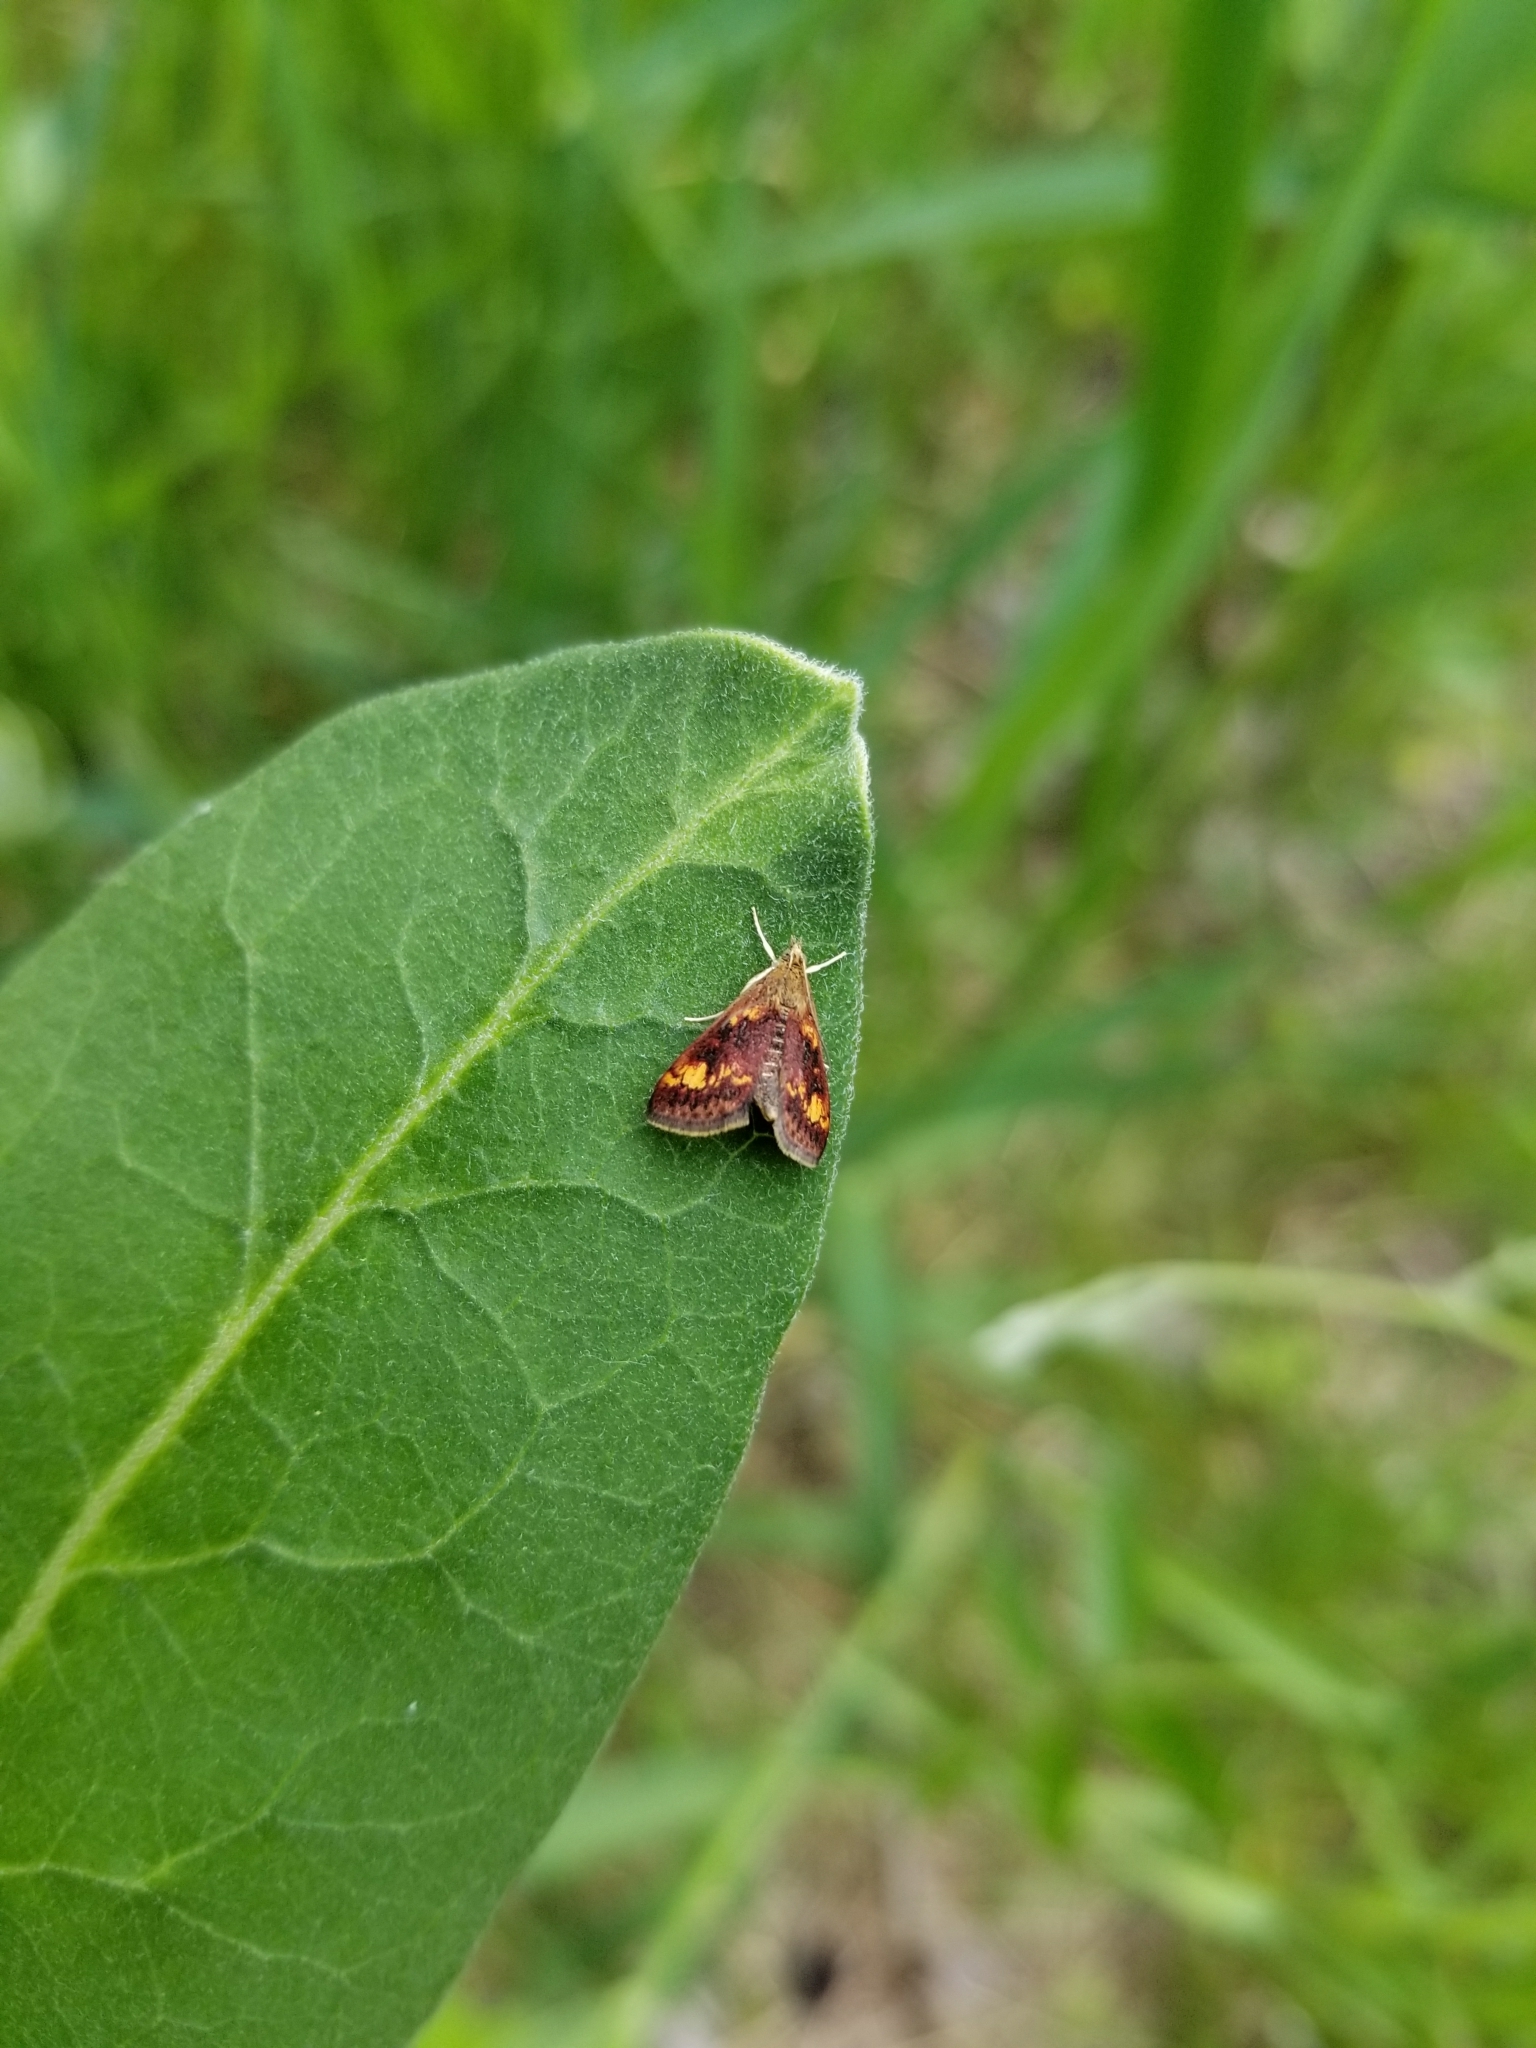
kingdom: Animalia
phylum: Arthropoda
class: Insecta
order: Lepidoptera
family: Crambidae
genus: Pyrausta
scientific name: Pyrausta orphisalis
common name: Orange mint moth
